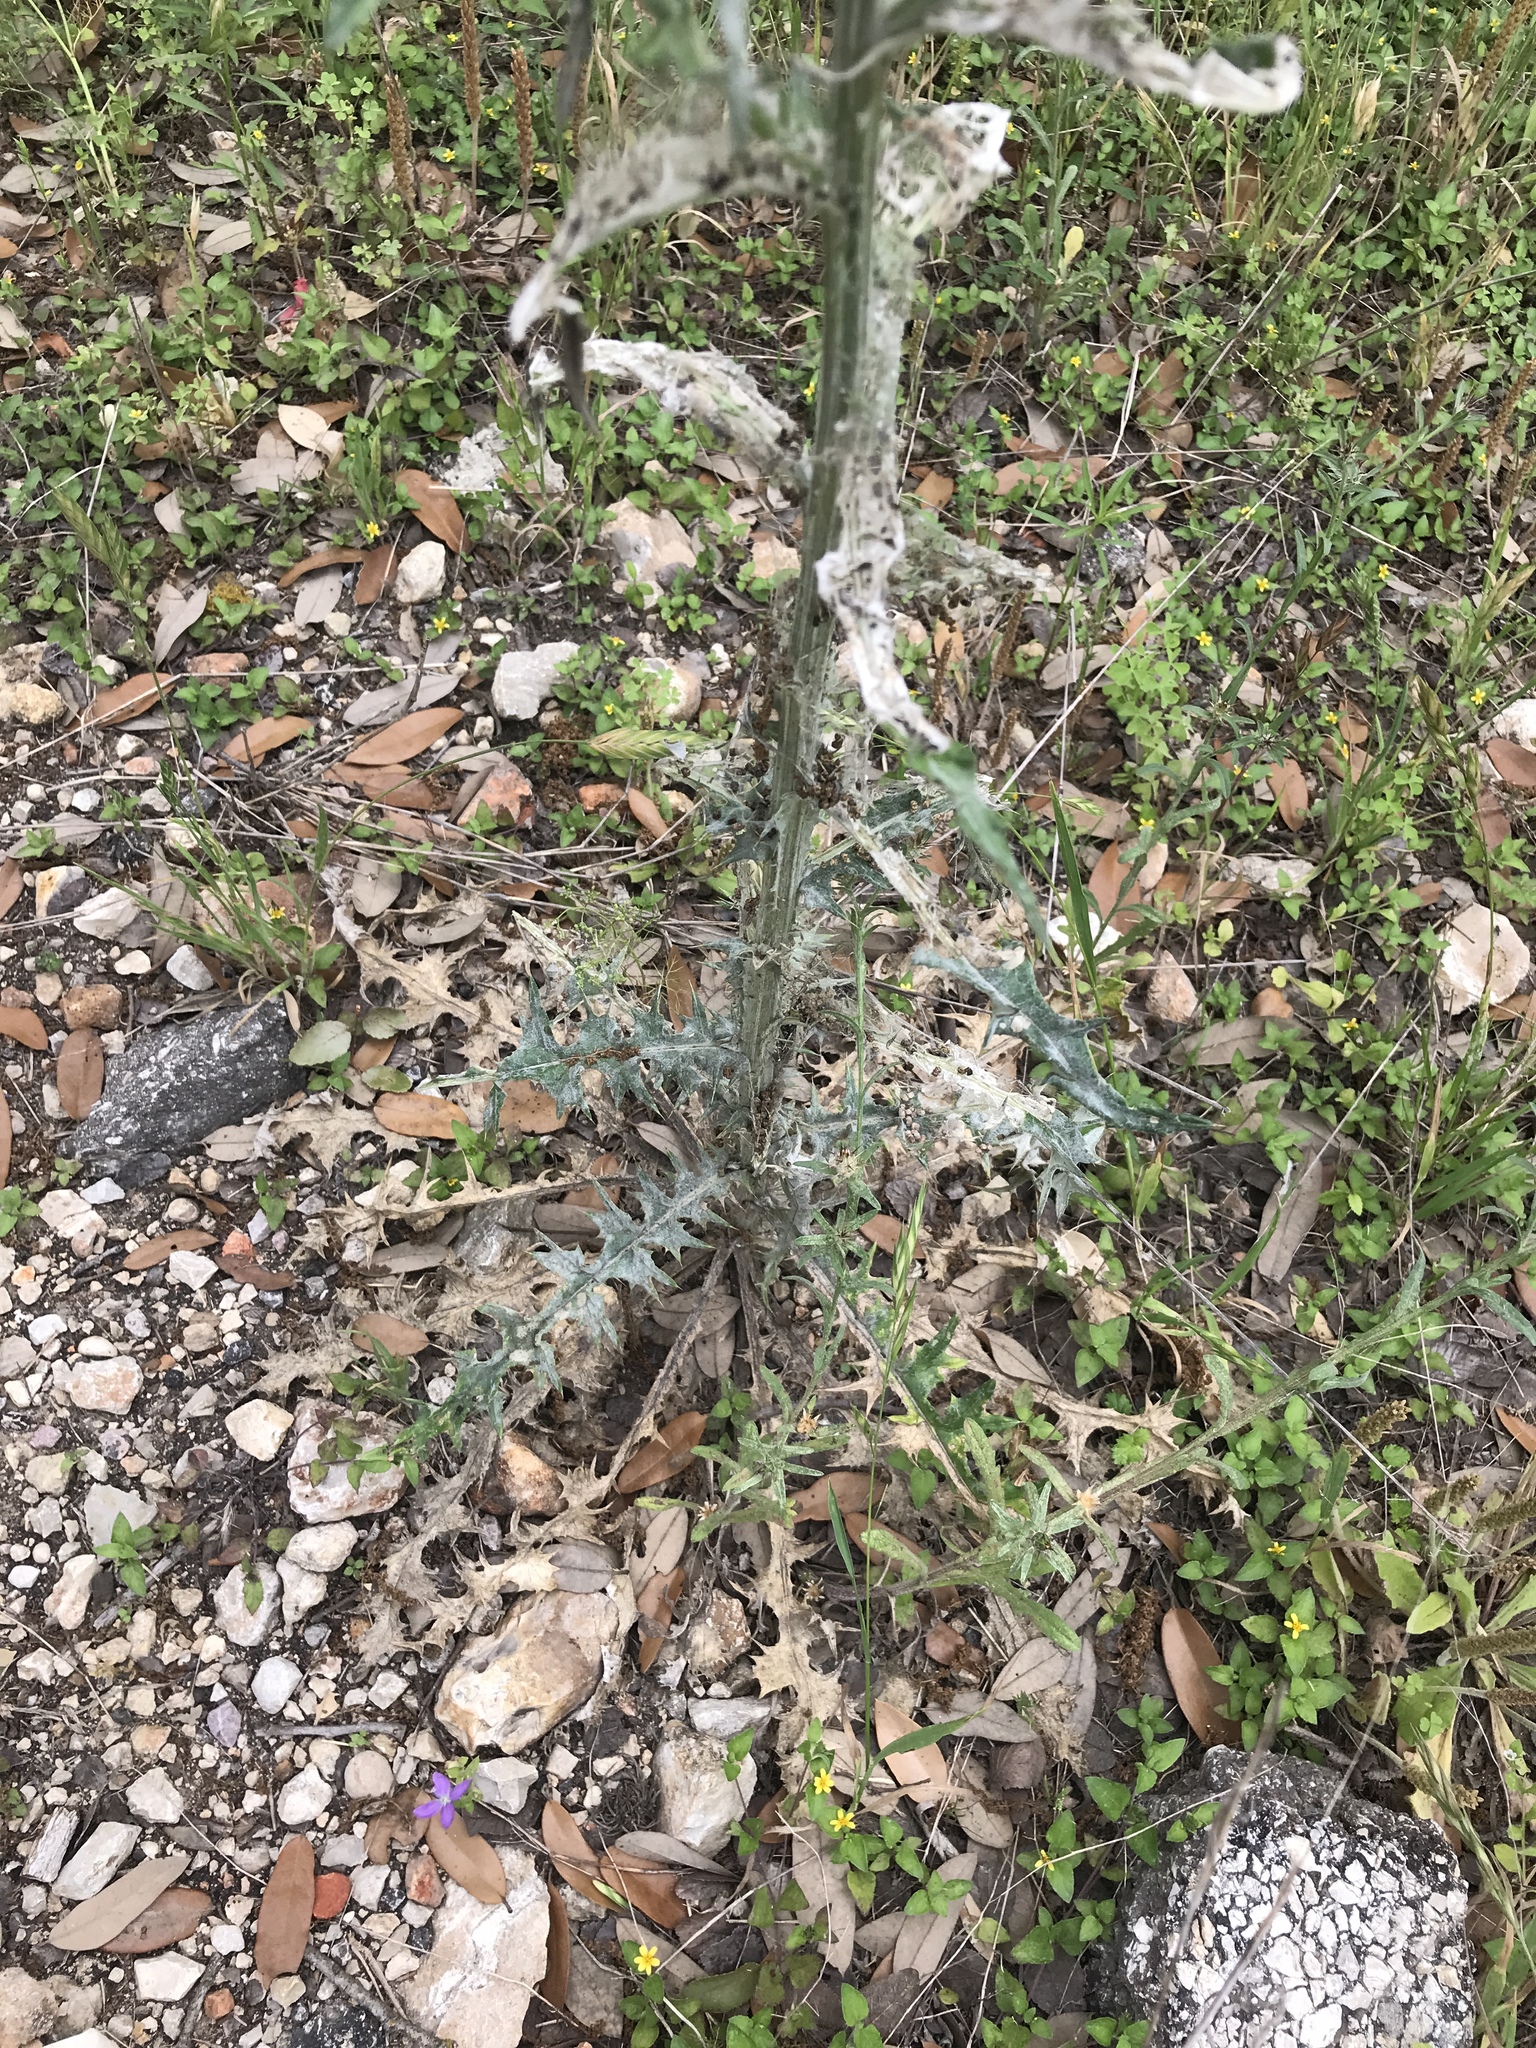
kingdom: Plantae
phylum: Tracheophyta
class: Magnoliopsida
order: Asterales
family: Asteraceae
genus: Cirsium
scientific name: Cirsium texanum
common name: Texas purple thistle
